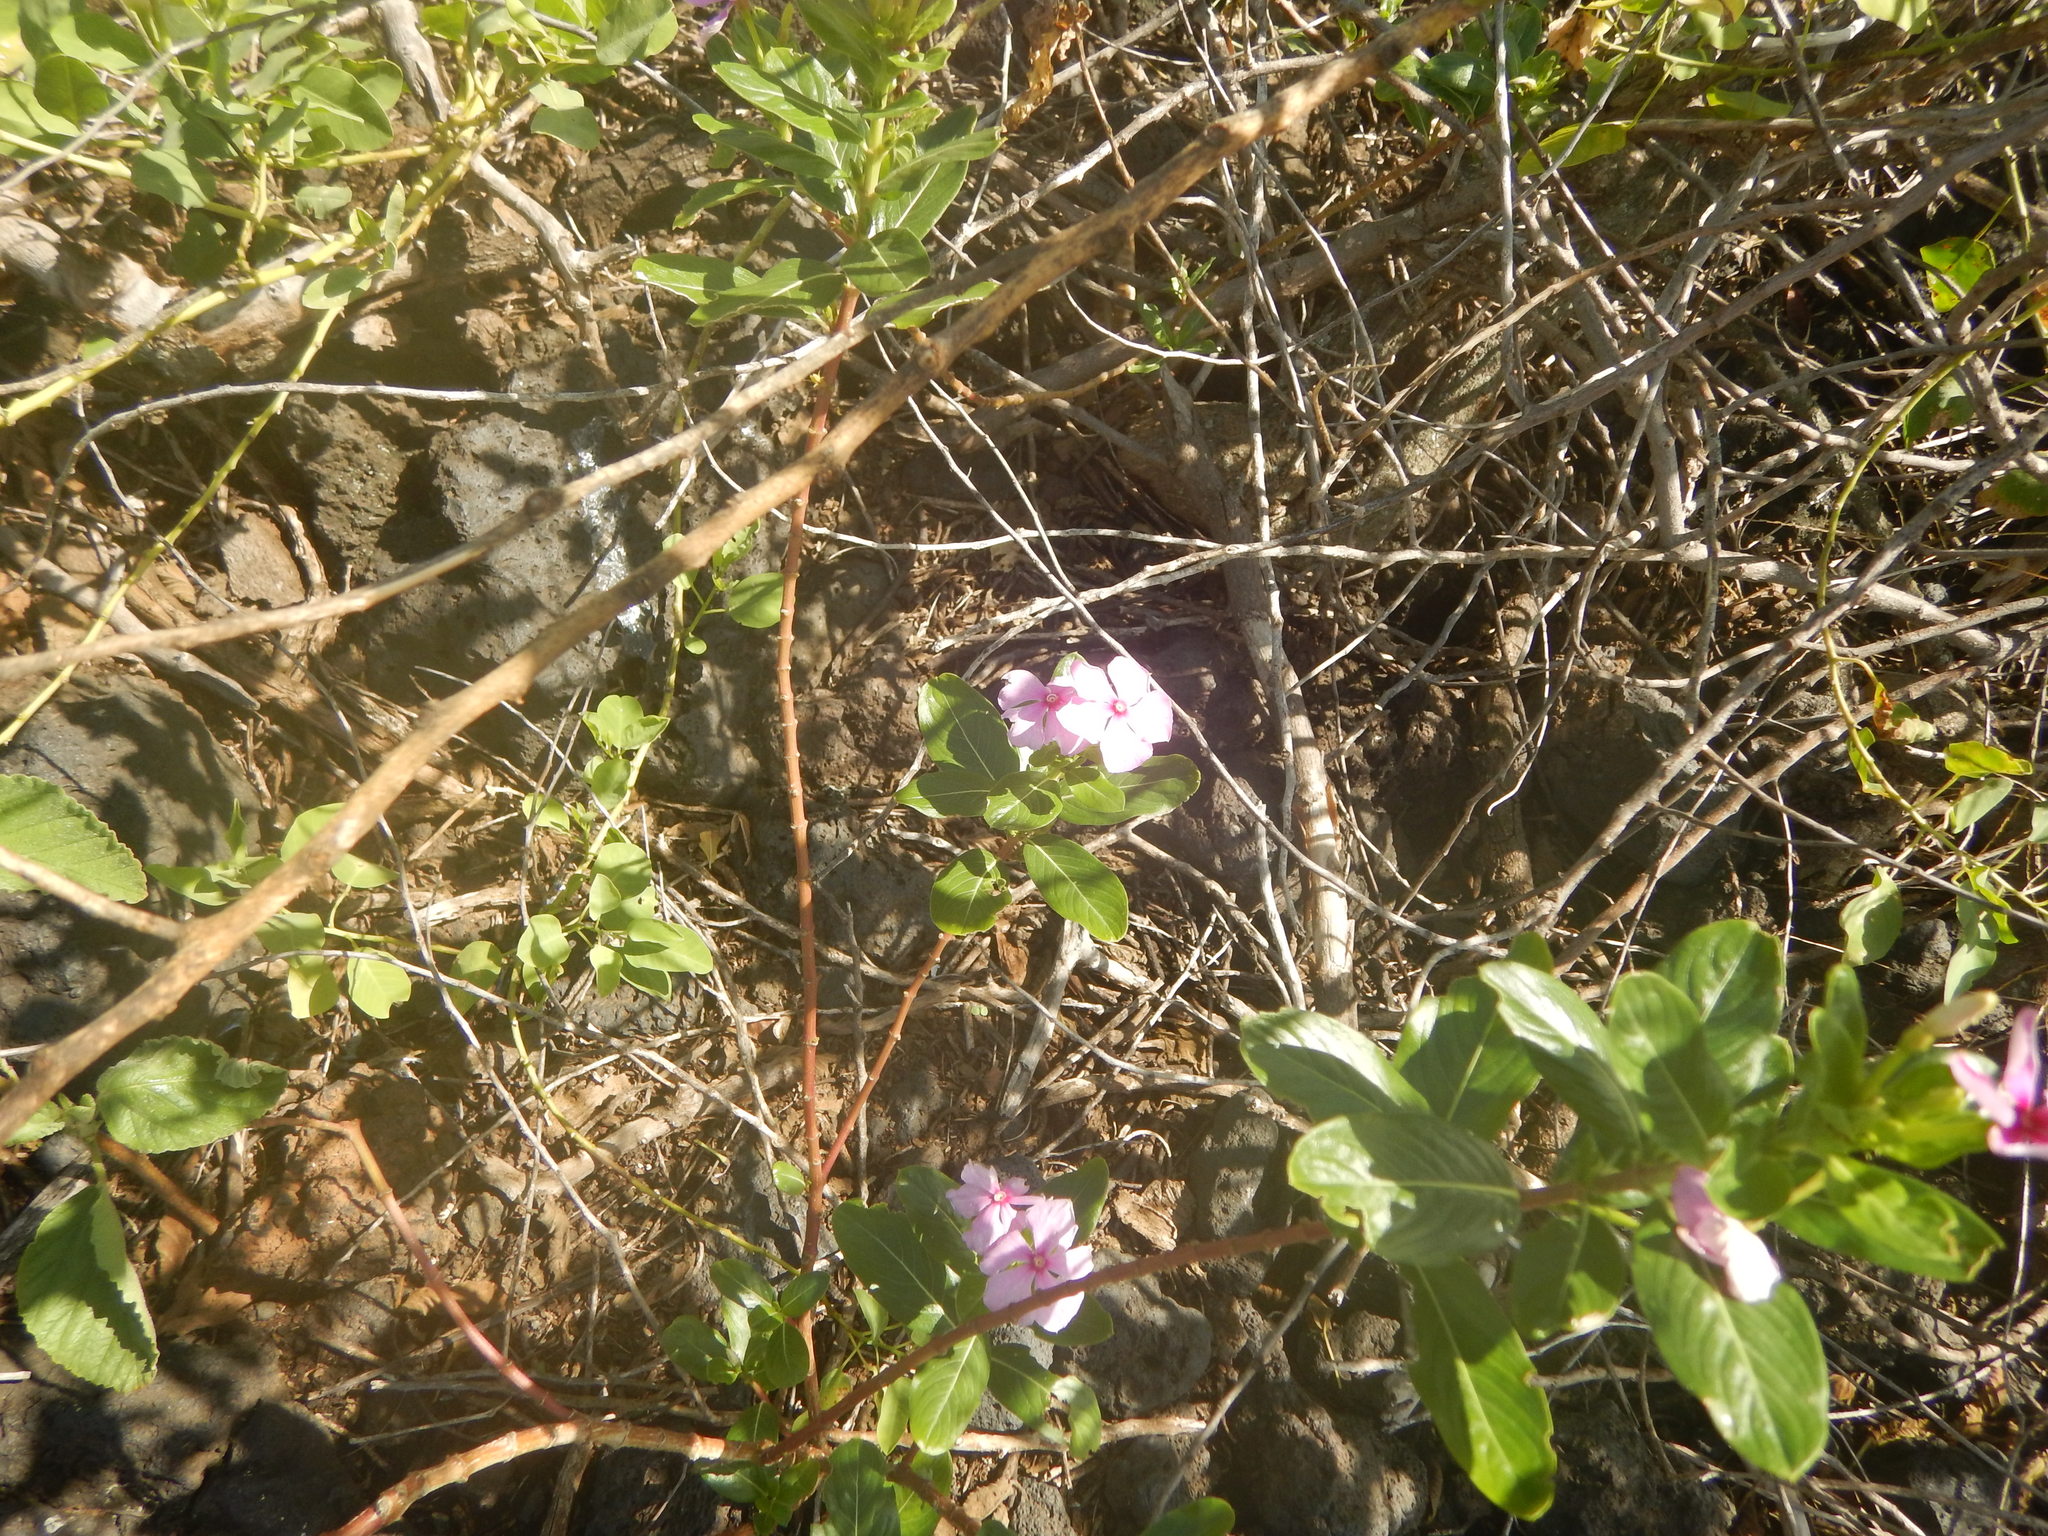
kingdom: Plantae
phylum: Tracheophyta
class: Magnoliopsida
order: Gentianales
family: Apocynaceae
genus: Catharanthus
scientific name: Catharanthus roseus
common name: Madagascar periwinkle
